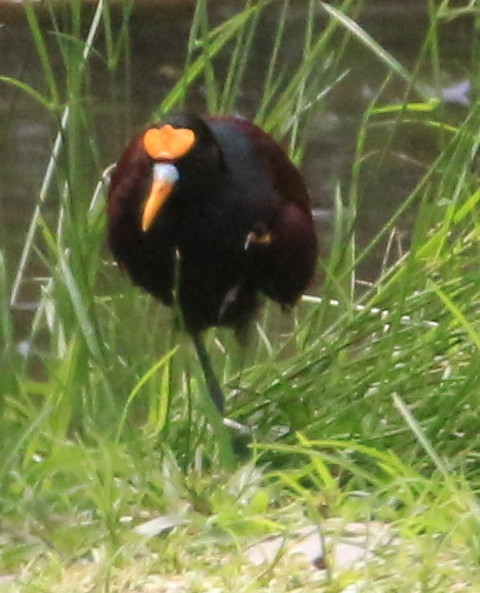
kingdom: Animalia
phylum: Chordata
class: Aves
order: Charadriiformes
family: Jacanidae
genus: Jacana
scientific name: Jacana spinosa
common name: Northern jacana
